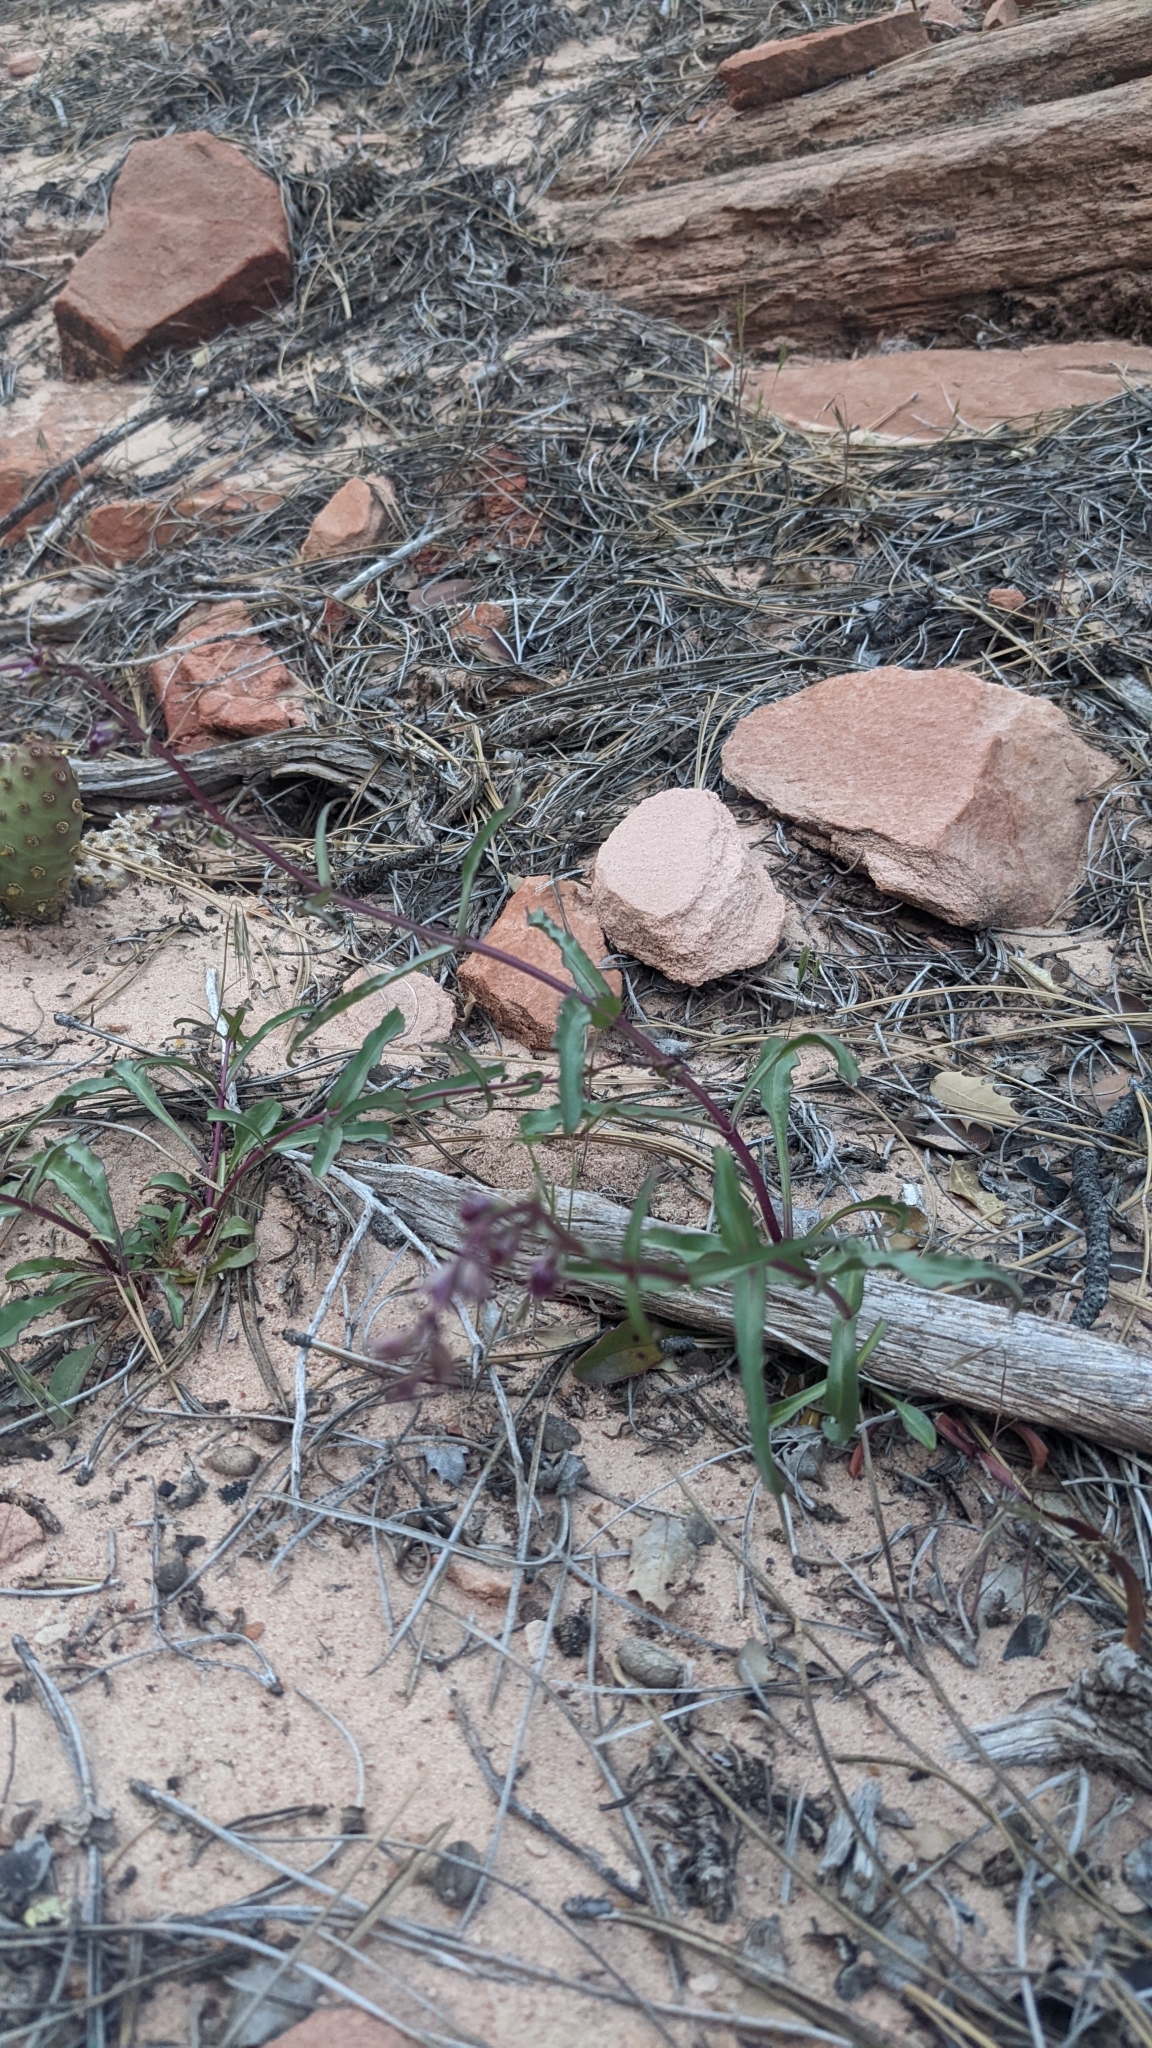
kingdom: Plantae
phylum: Tracheophyta
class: Magnoliopsida
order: Lamiales
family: Plantaginaceae
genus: Penstemon
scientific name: Penstemon jonesii
